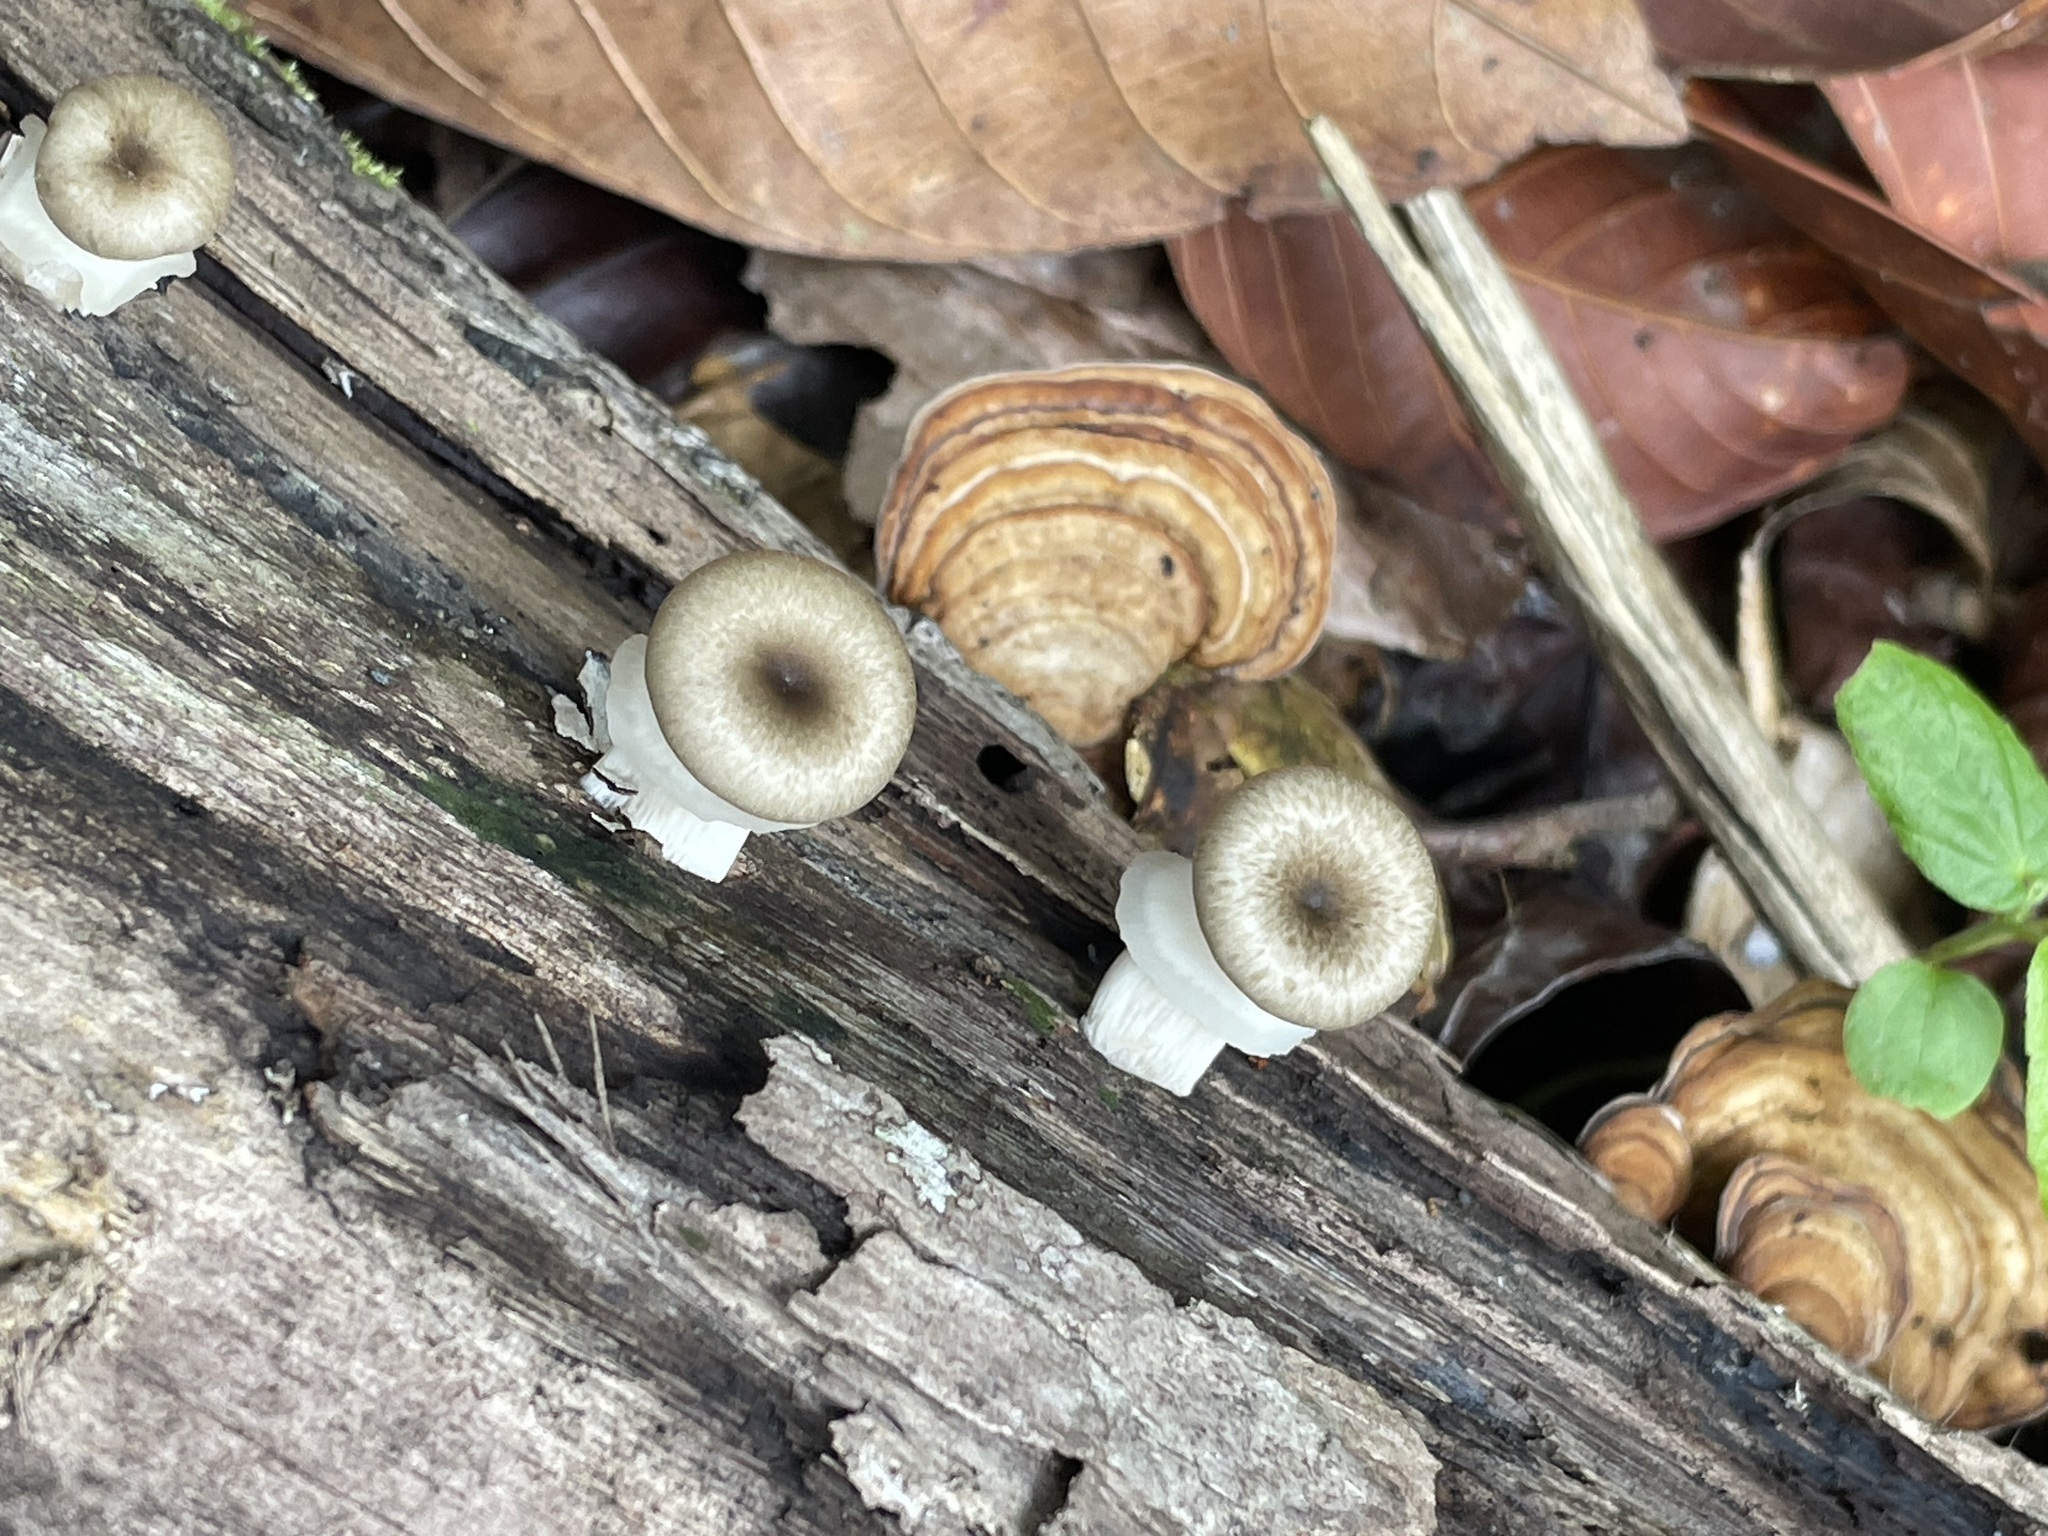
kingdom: Fungi
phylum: Basidiomycota
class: Agaricomycetes
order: Polyporales
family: Polyporaceae
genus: Lentinus
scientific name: Lentinus sajor-caju
